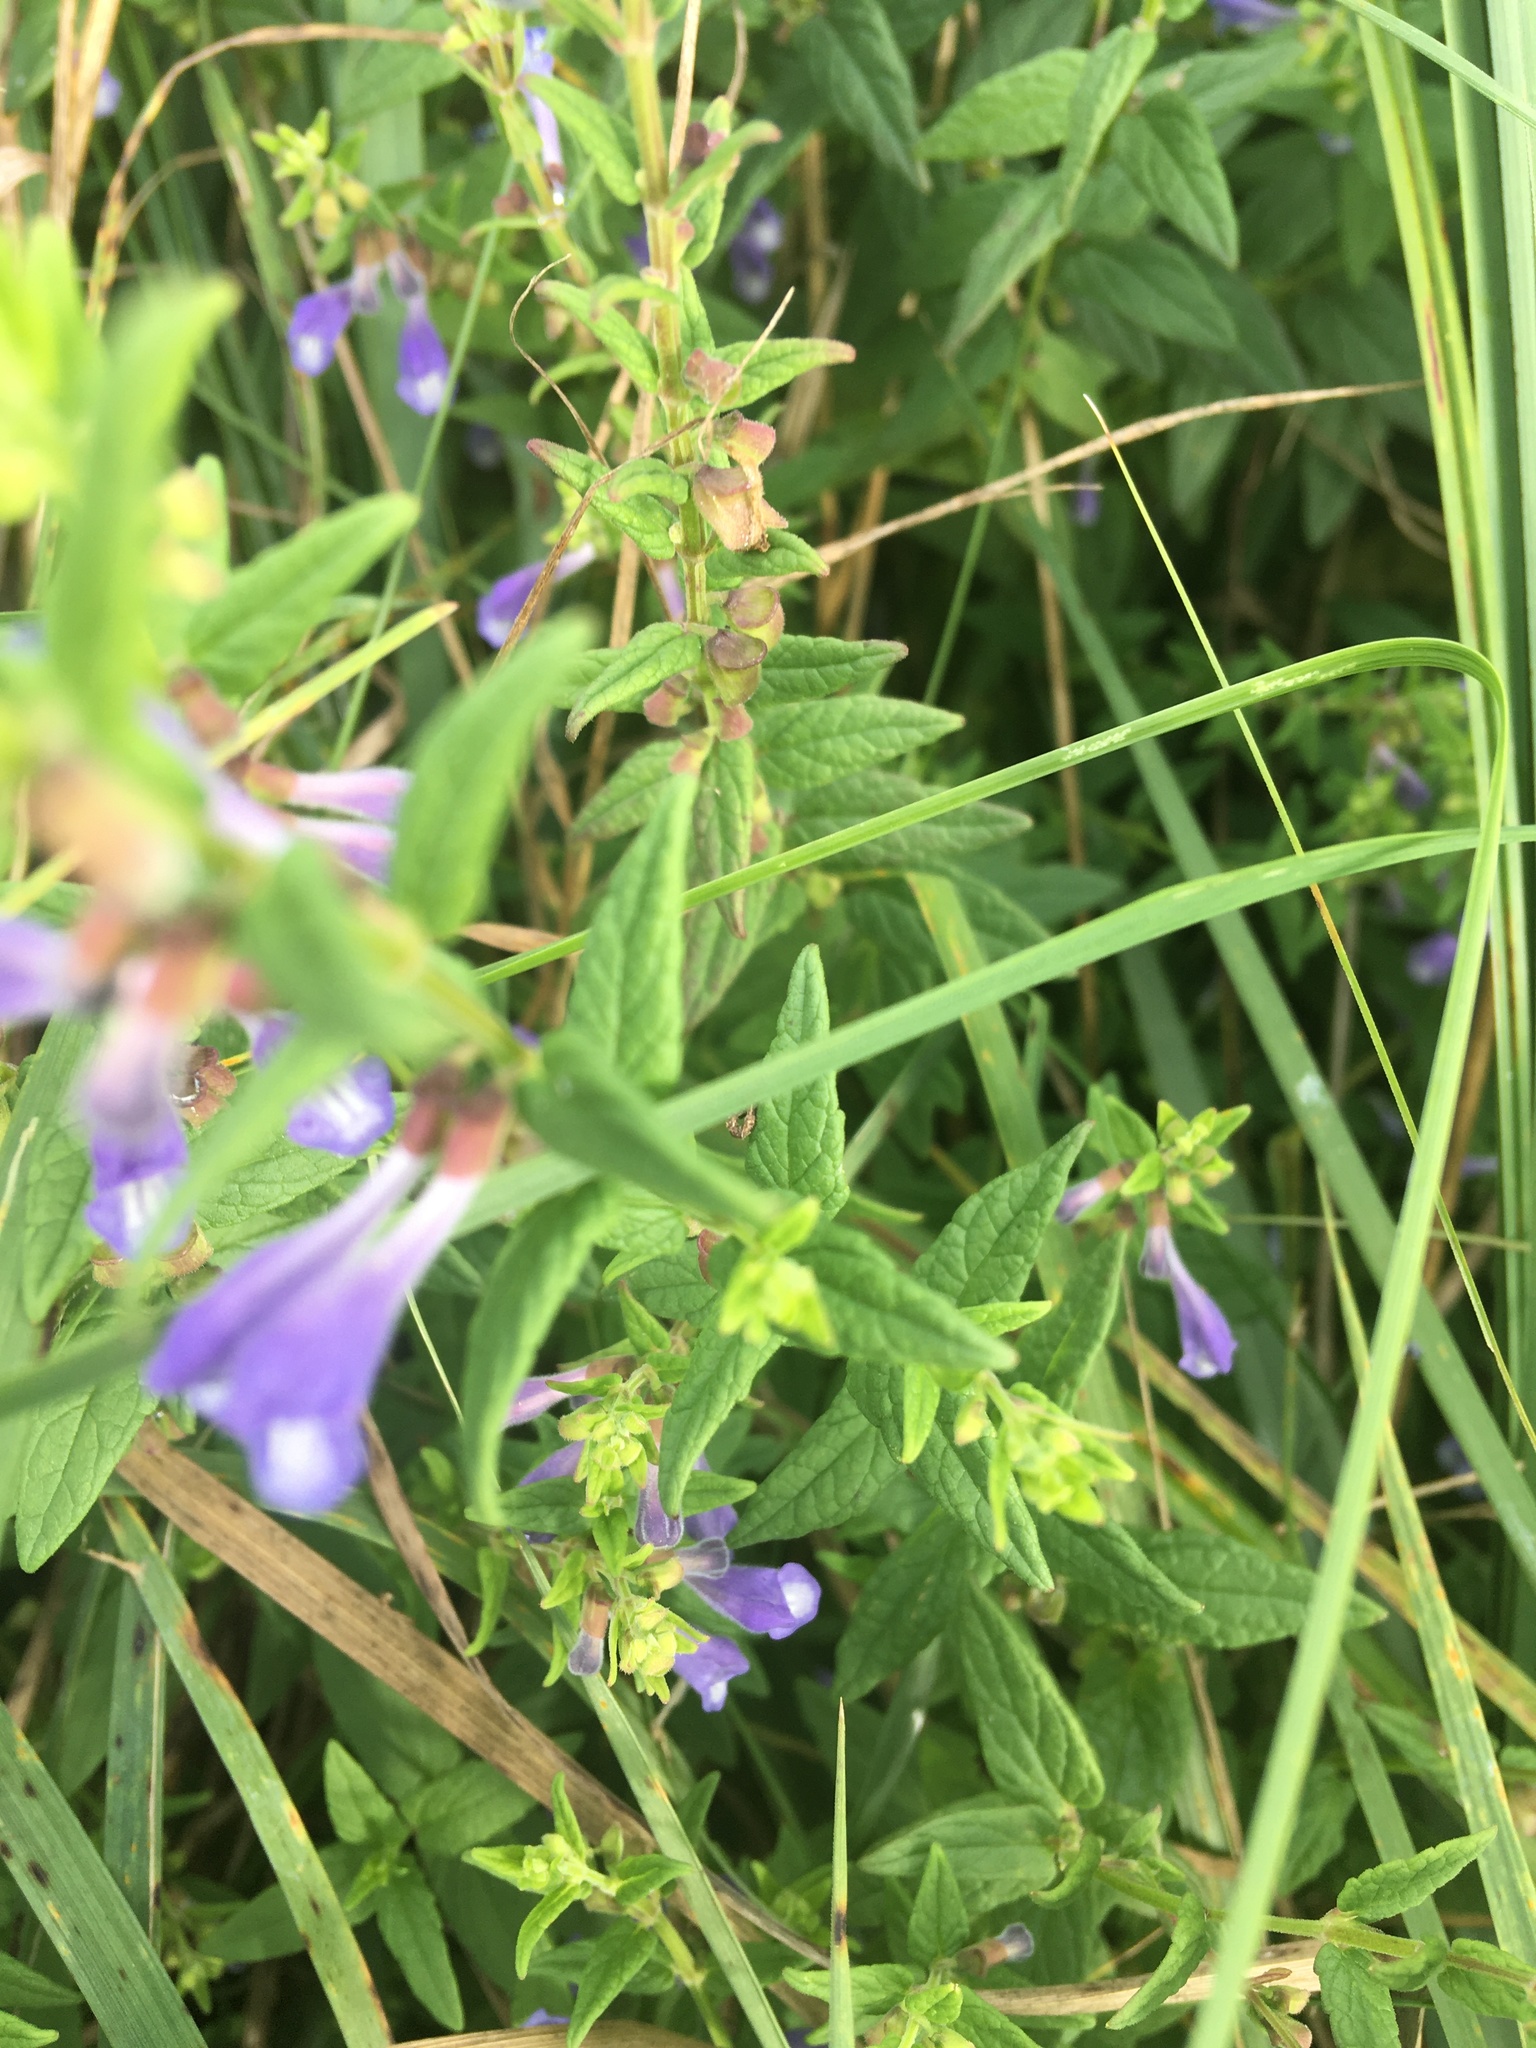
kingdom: Plantae
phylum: Tracheophyta
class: Magnoliopsida
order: Lamiales
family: Lamiaceae
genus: Scutellaria
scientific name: Scutellaria galericulata
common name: Skullcap
